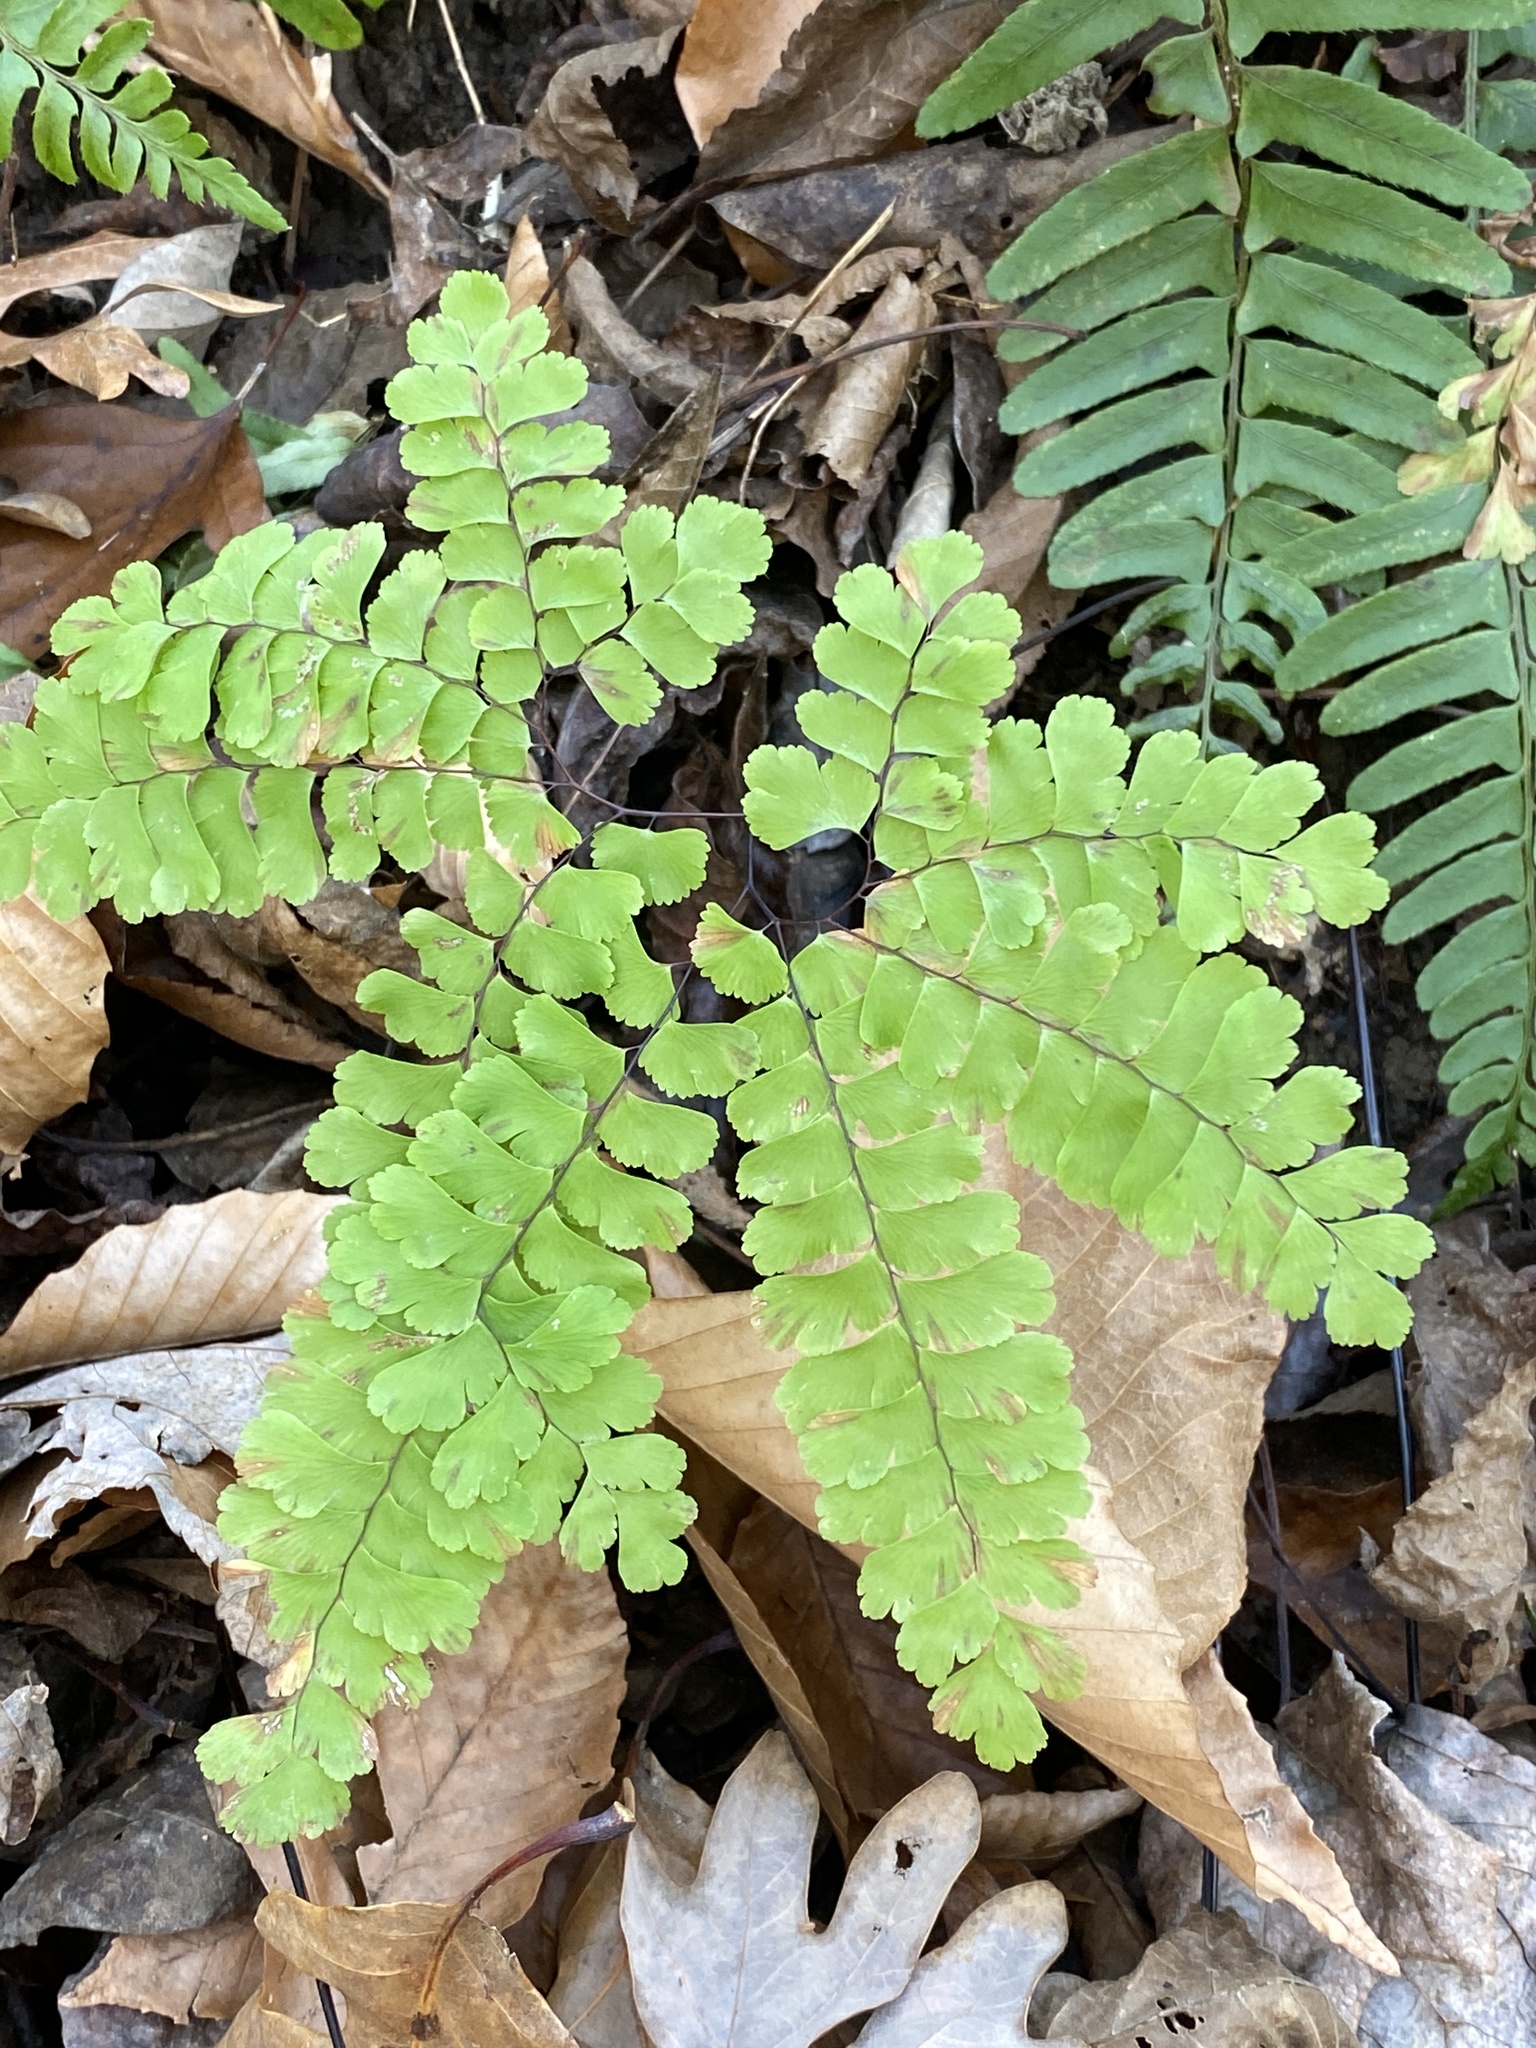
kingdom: Plantae
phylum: Tracheophyta
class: Polypodiopsida
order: Polypodiales
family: Pteridaceae
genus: Adiantum
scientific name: Adiantum pedatum
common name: Five-finger fern
